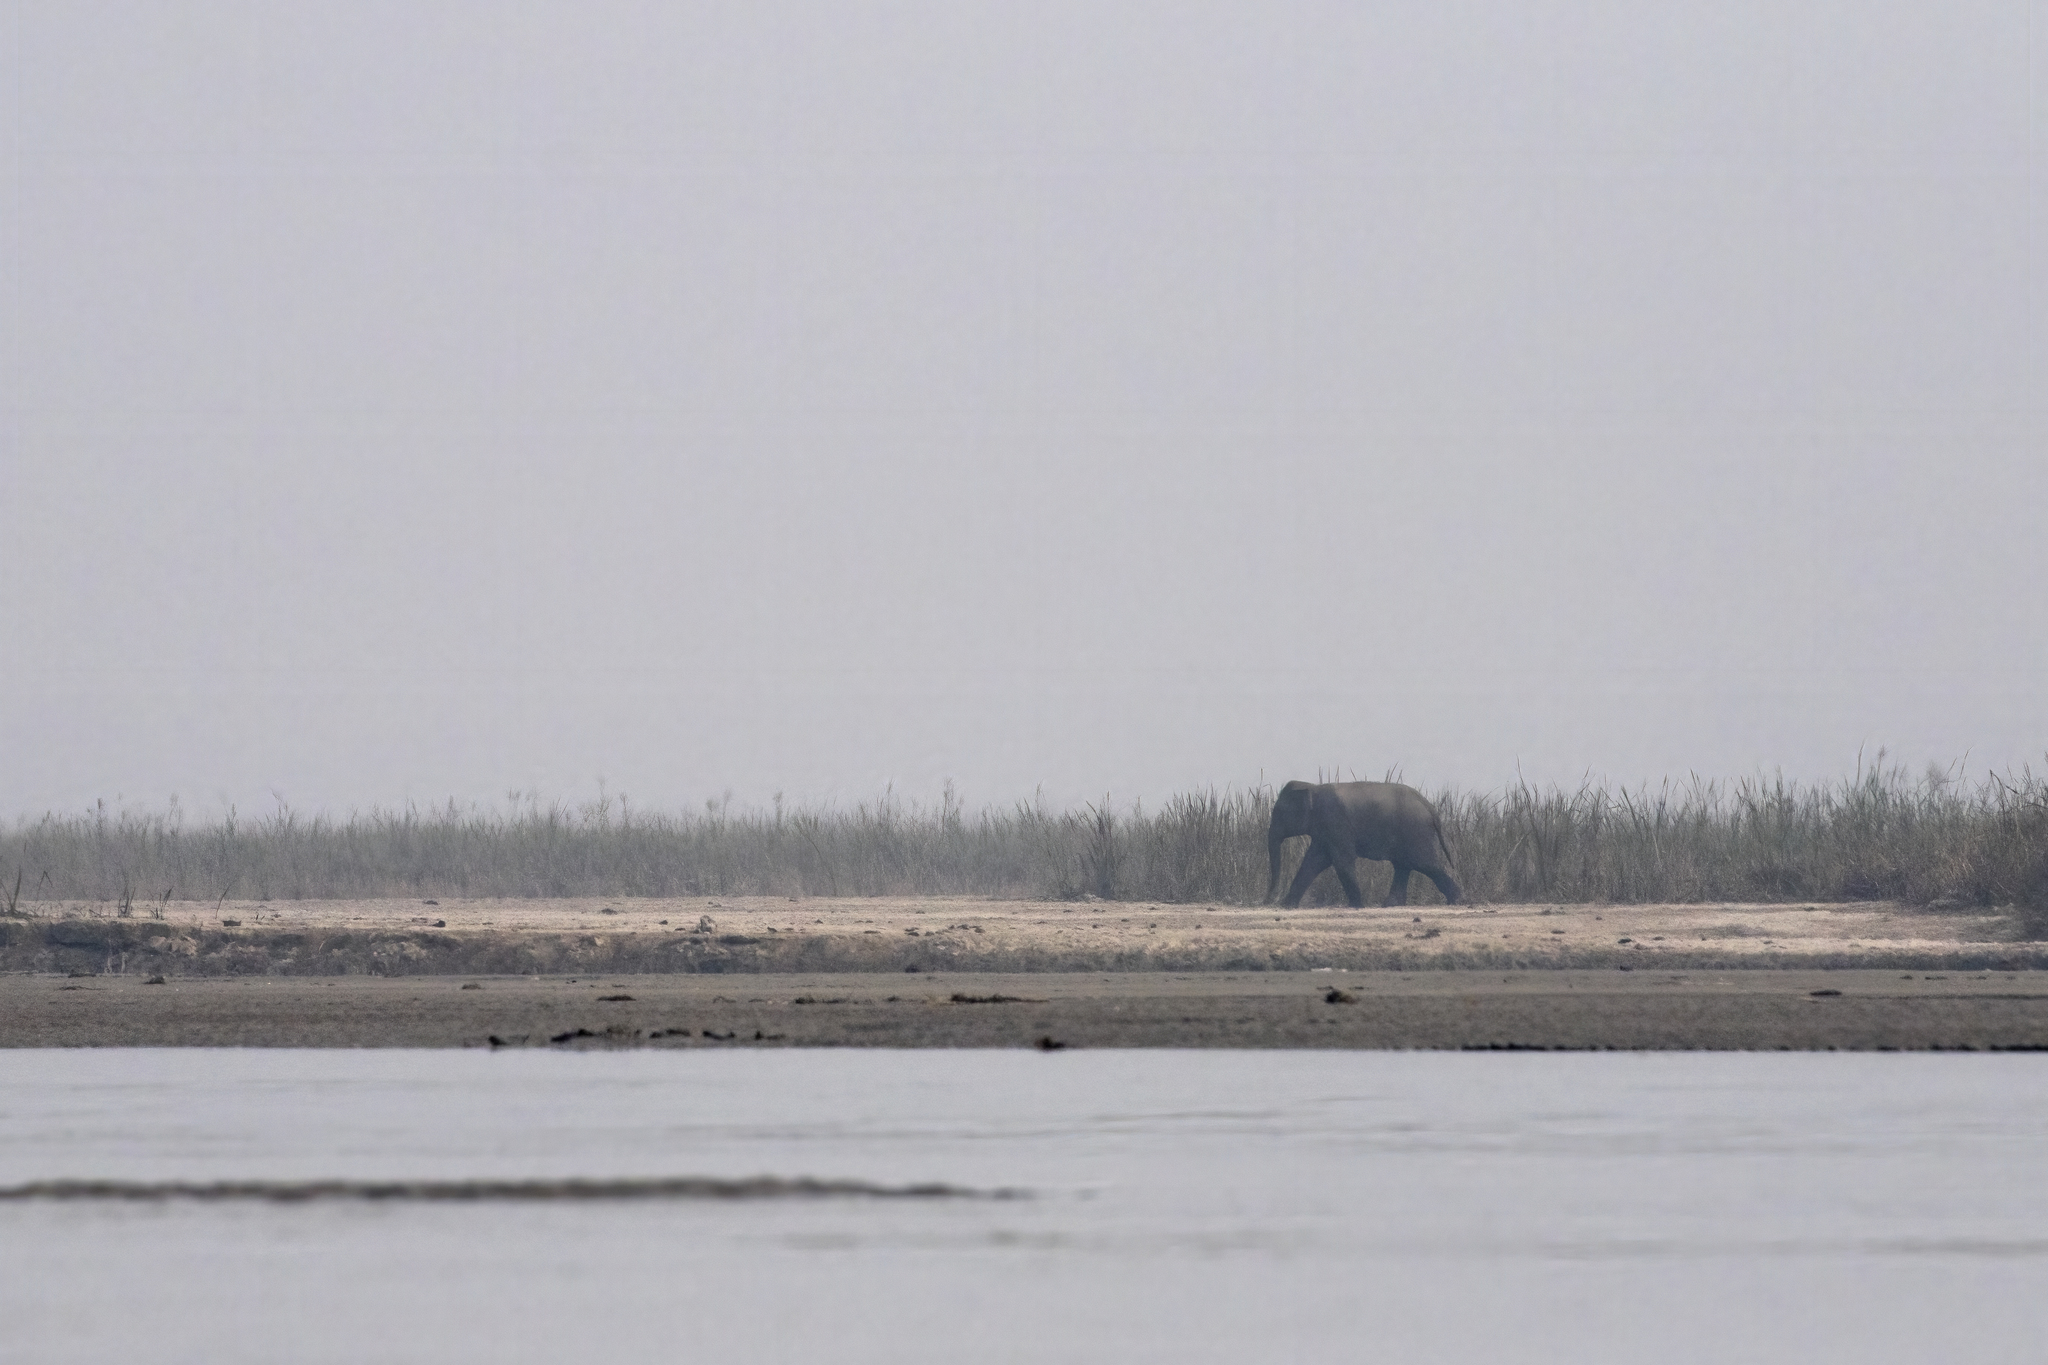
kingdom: Animalia
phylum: Chordata
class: Mammalia
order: Proboscidea
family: Elephantidae
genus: Elephas
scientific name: Elephas maximus
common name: Asian elephant
